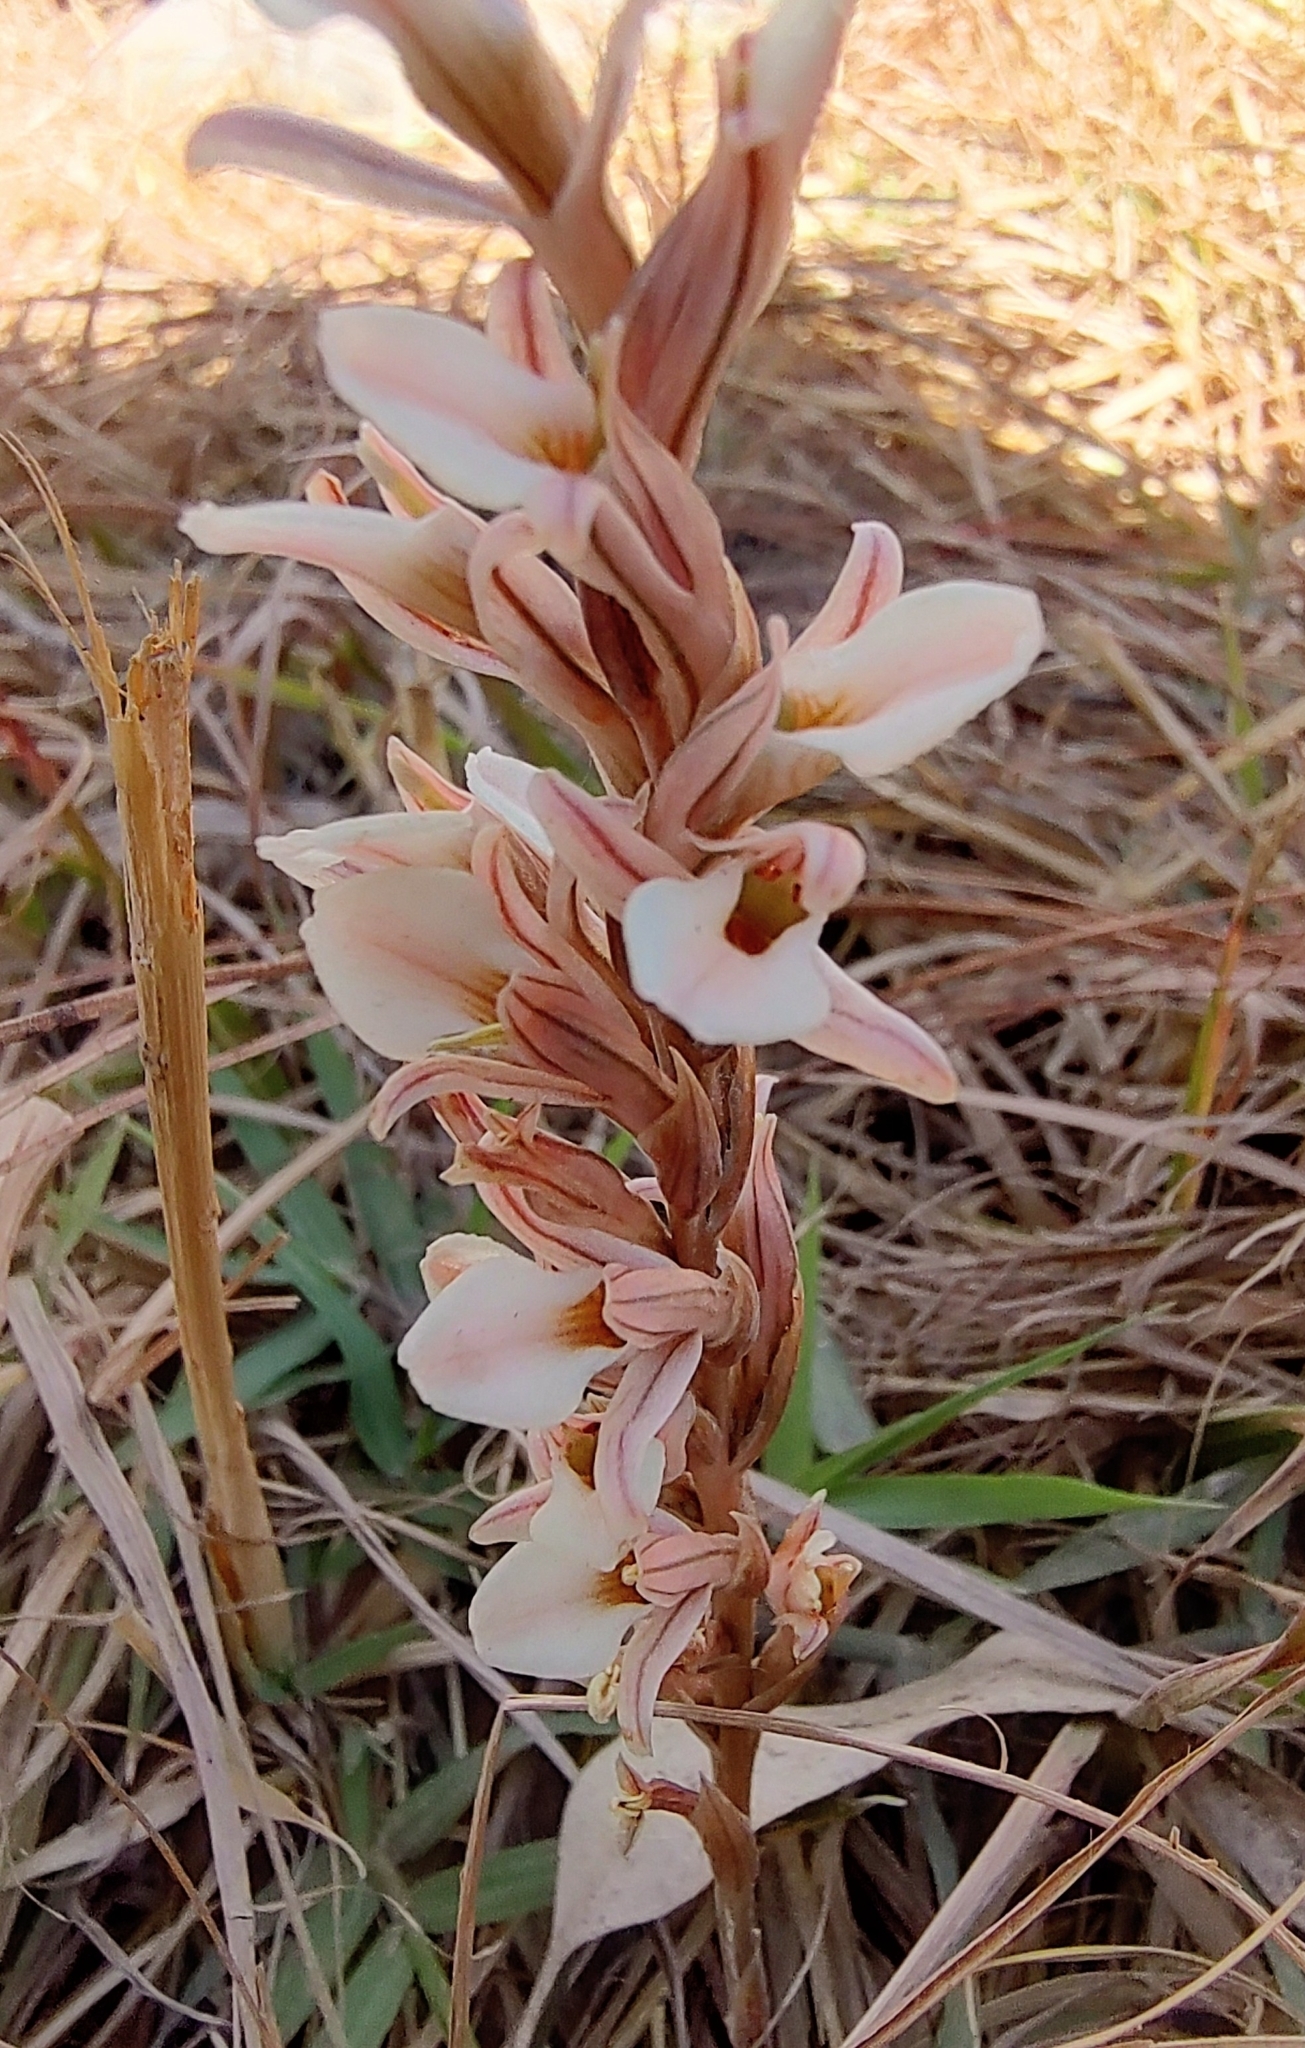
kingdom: Plantae
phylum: Tracheophyta
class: Liliopsida
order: Asparagales
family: Orchidaceae
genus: Schiedeella
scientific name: Schiedeella crenulata
